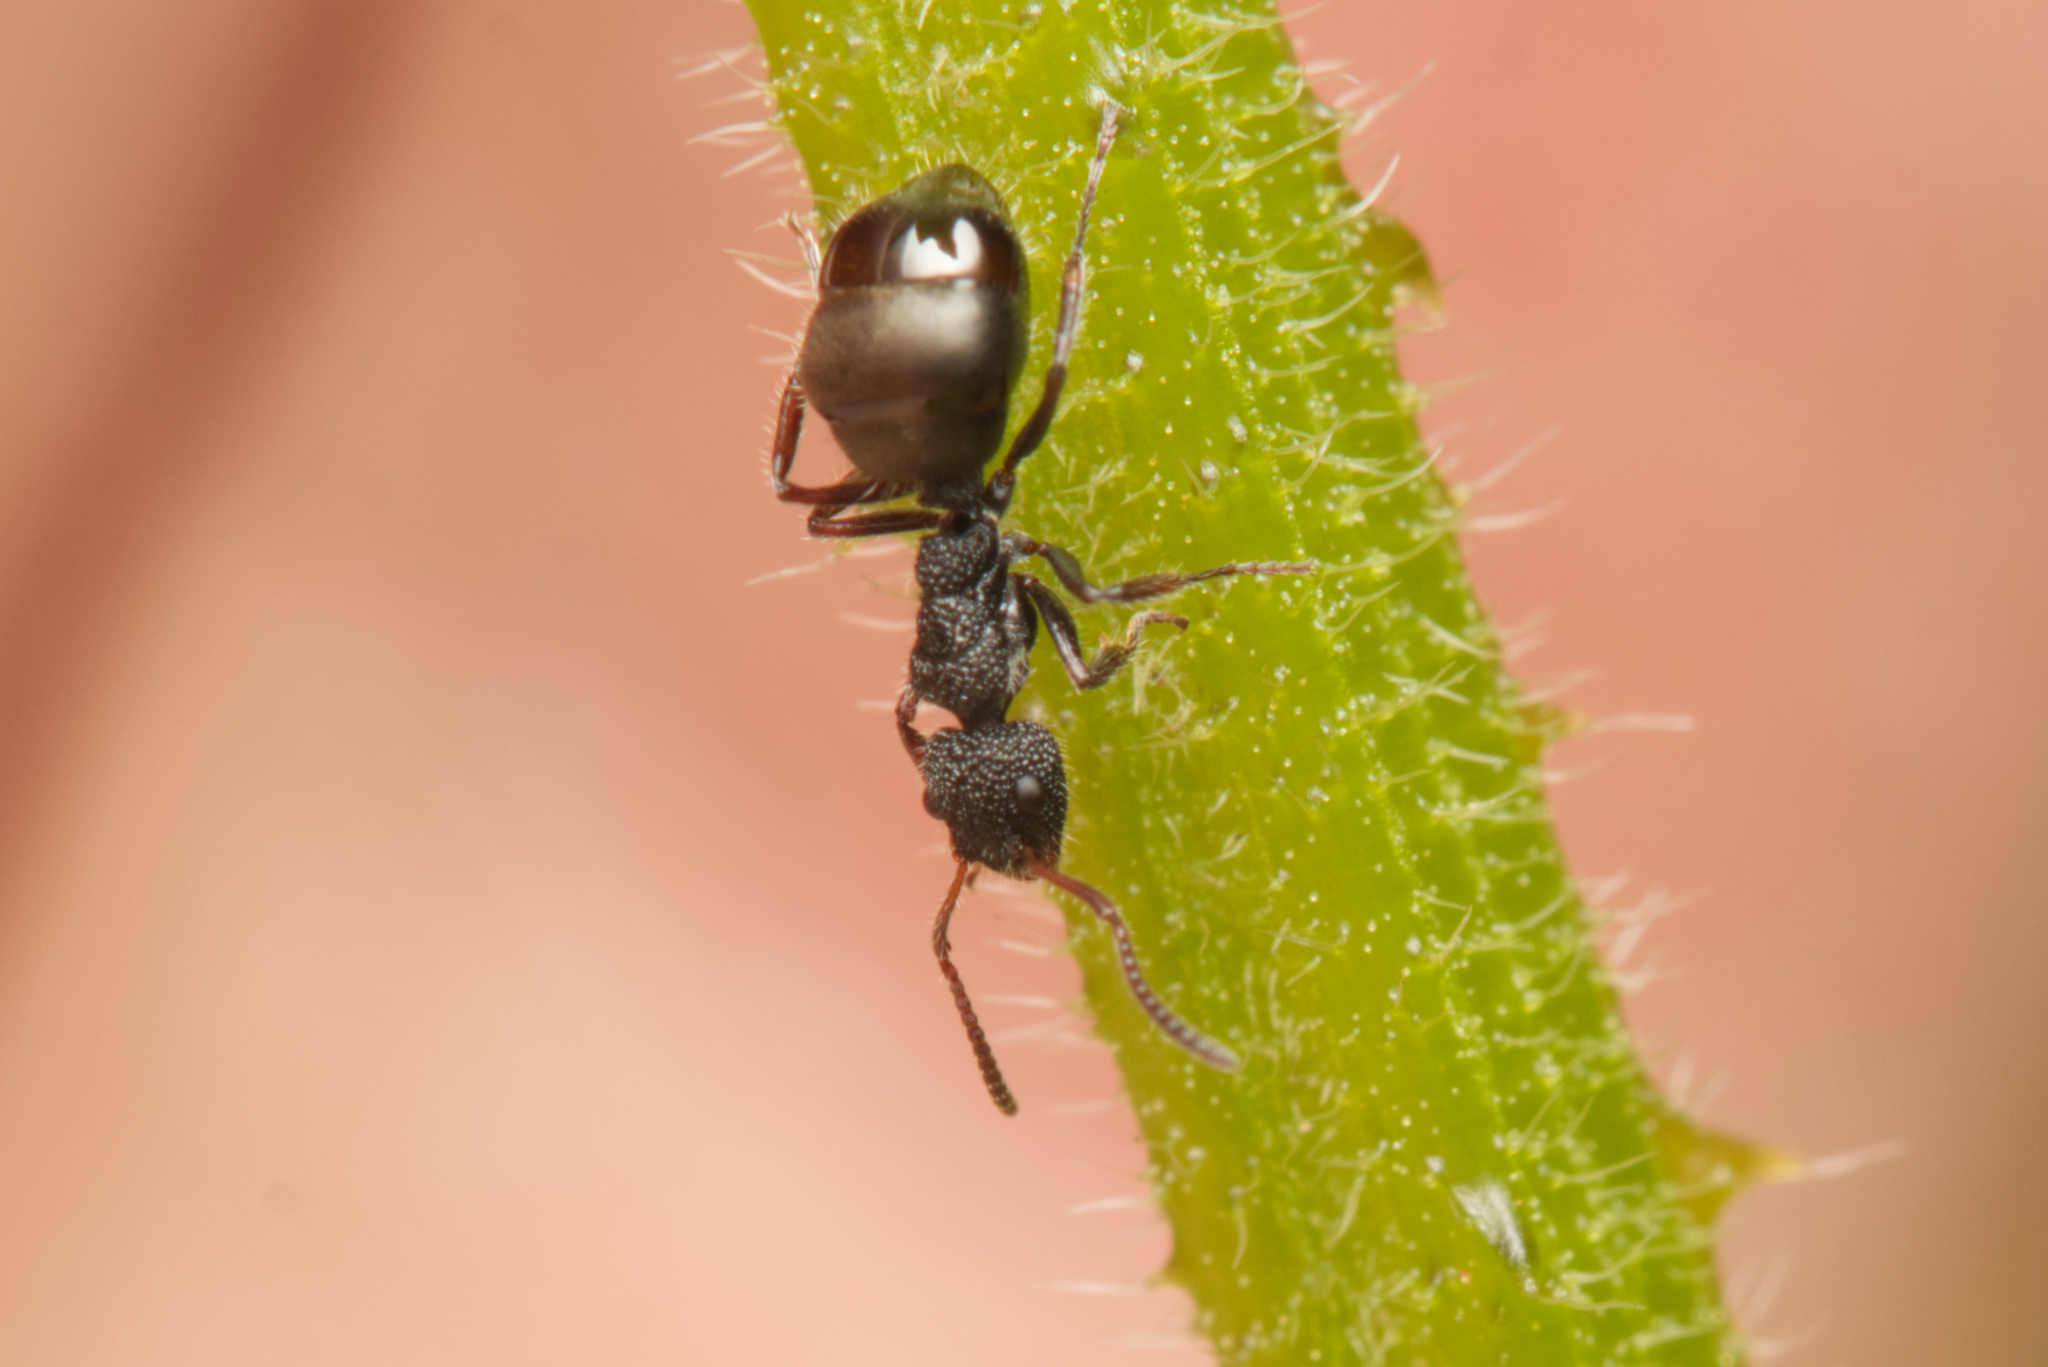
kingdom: Animalia
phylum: Arthropoda
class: Insecta
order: Hymenoptera
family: Formicidae
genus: Dolichoderus
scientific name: Dolichoderus scrobiculatus
